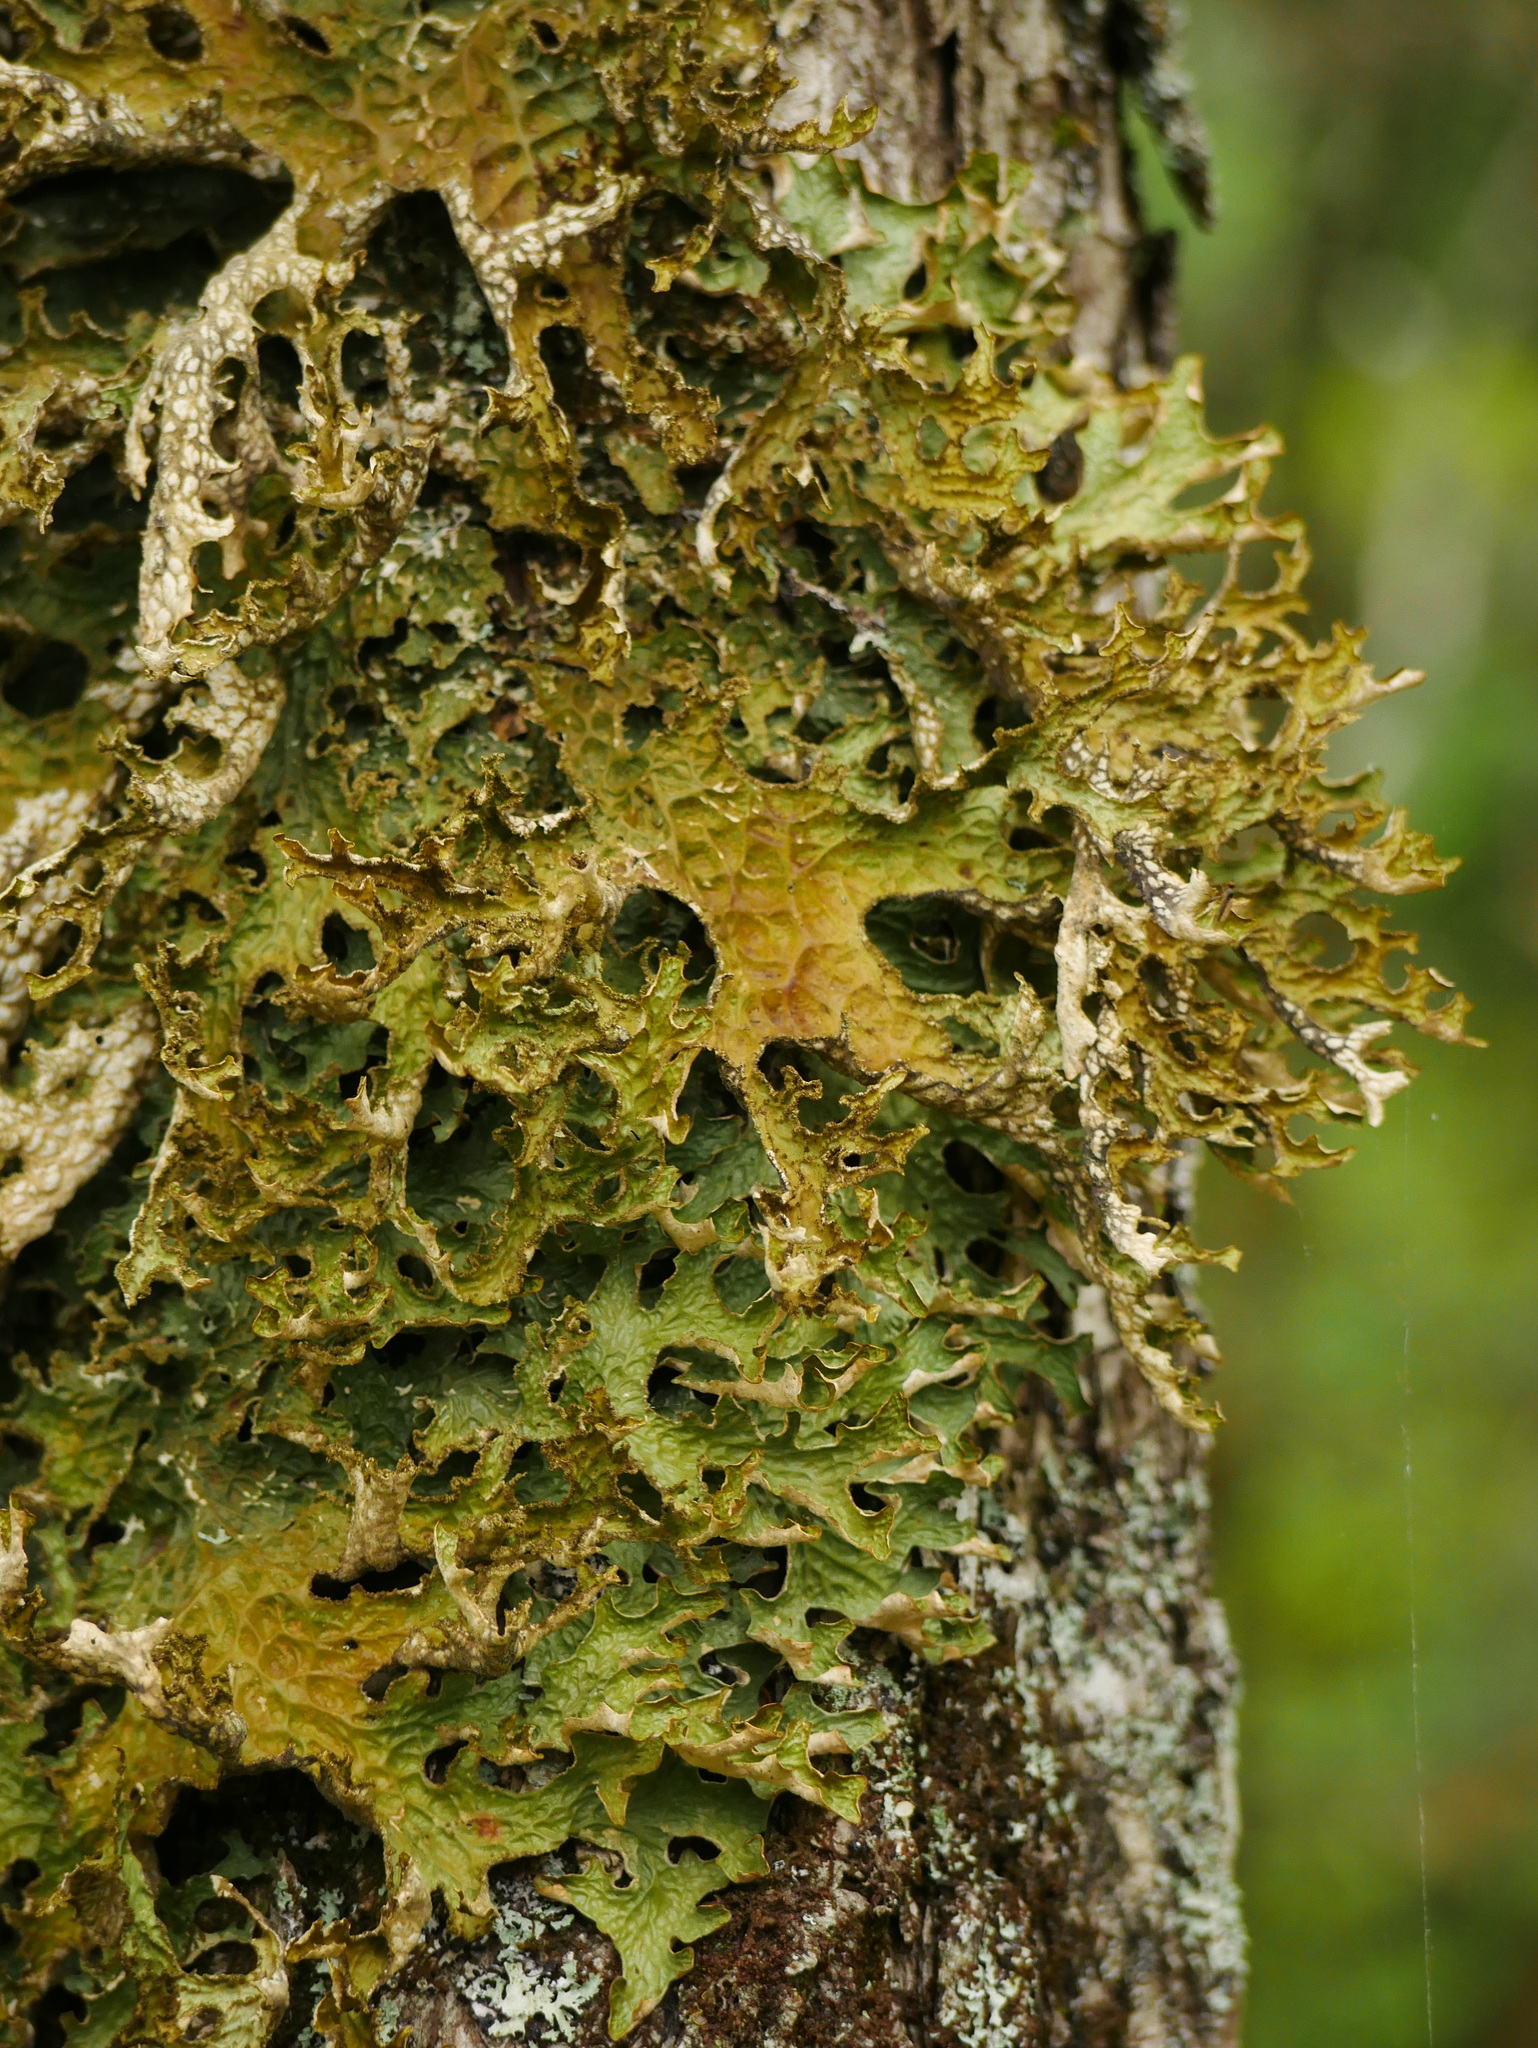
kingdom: Fungi
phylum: Ascomycota
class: Lecanoromycetes
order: Peltigerales
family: Lobariaceae
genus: Lobaria
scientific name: Lobaria pulmonaria
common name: Lungwort
